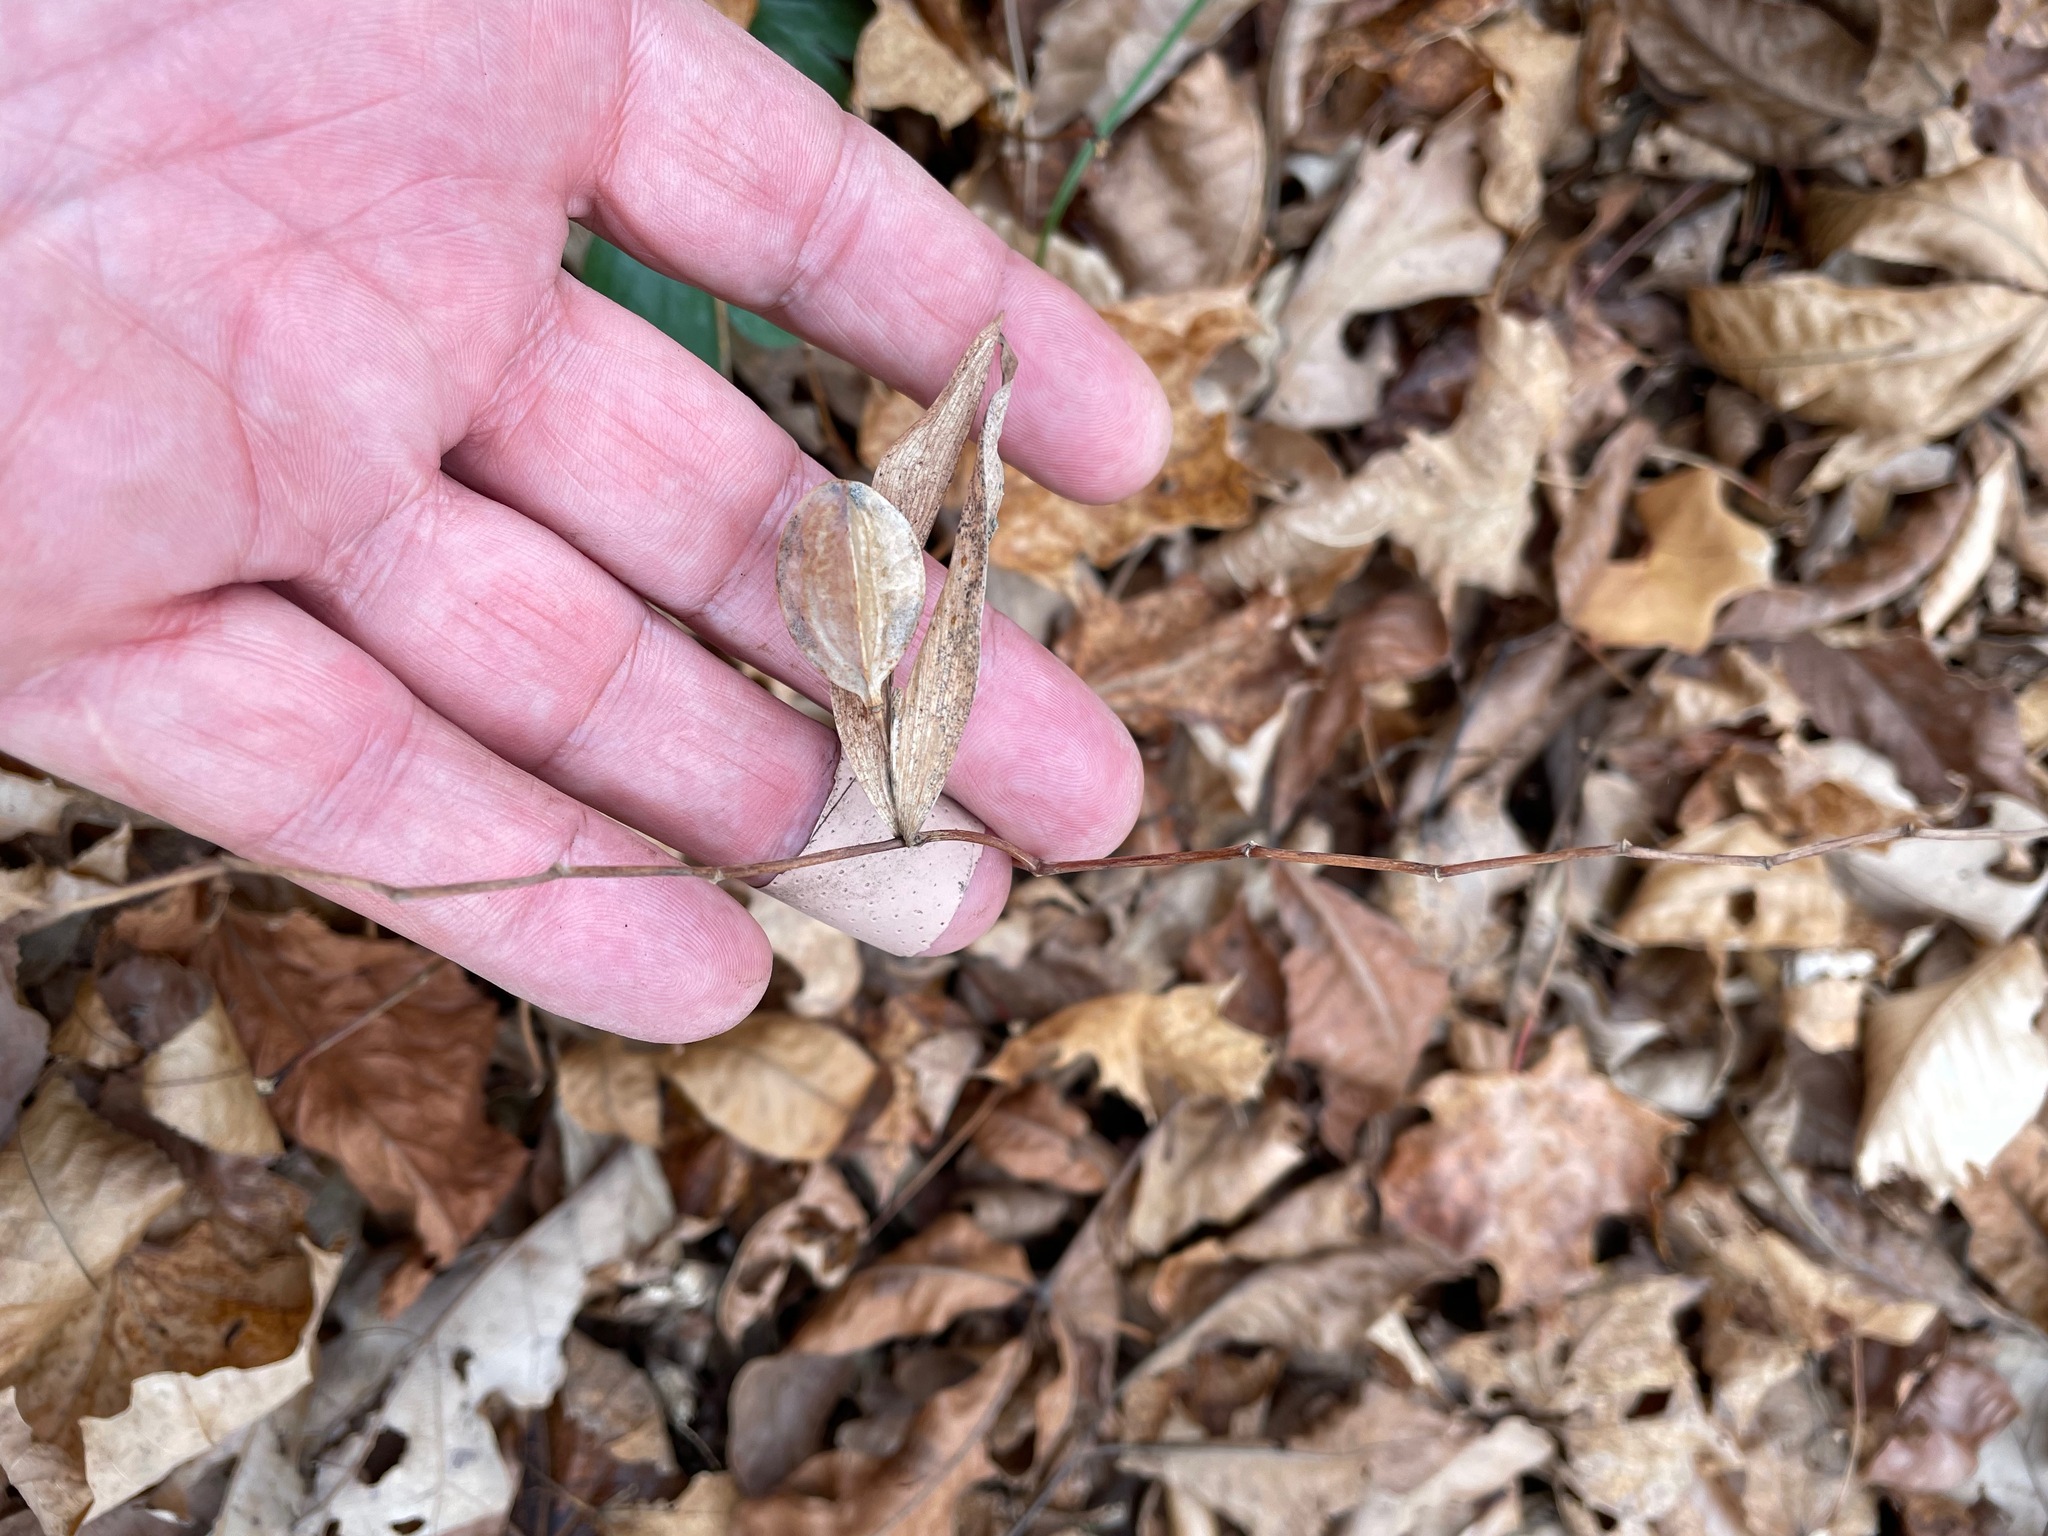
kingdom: Plantae
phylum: Tracheophyta
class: Liliopsida
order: Liliales
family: Colchicaceae
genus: Uvularia
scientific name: Uvularia sessilifolia
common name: Straw-lily
